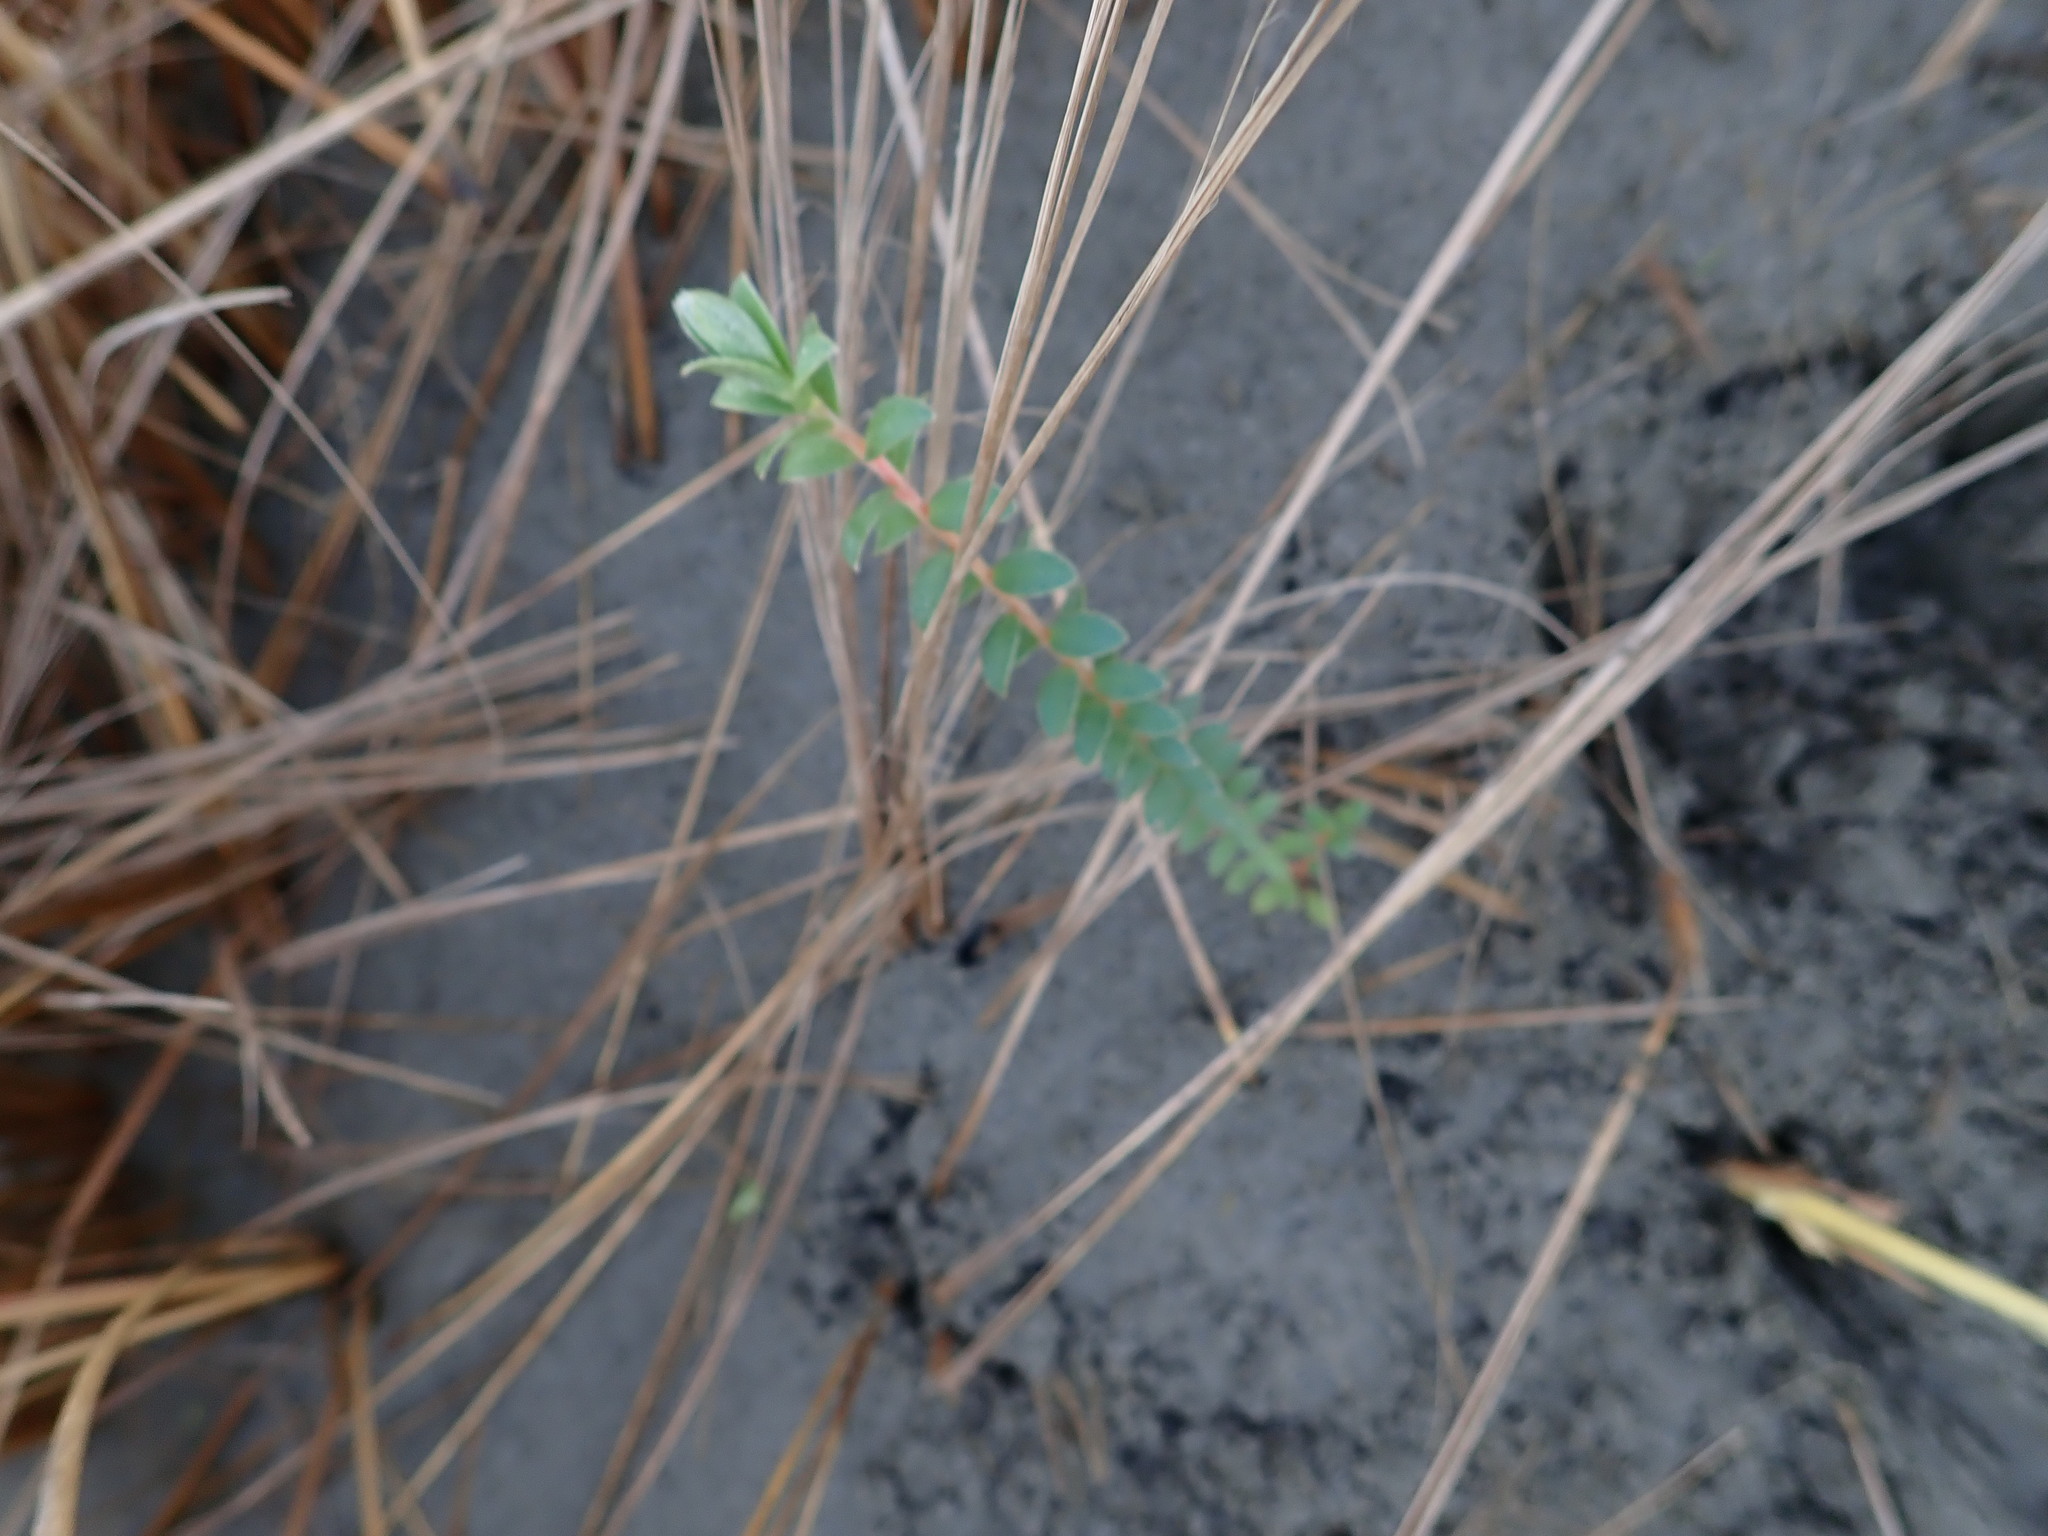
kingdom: Plantae
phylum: Tracheophyta
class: Magnoliopsida
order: Malvales
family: Thymelaeaceae
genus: Pimelea
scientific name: Pimelea villosa
